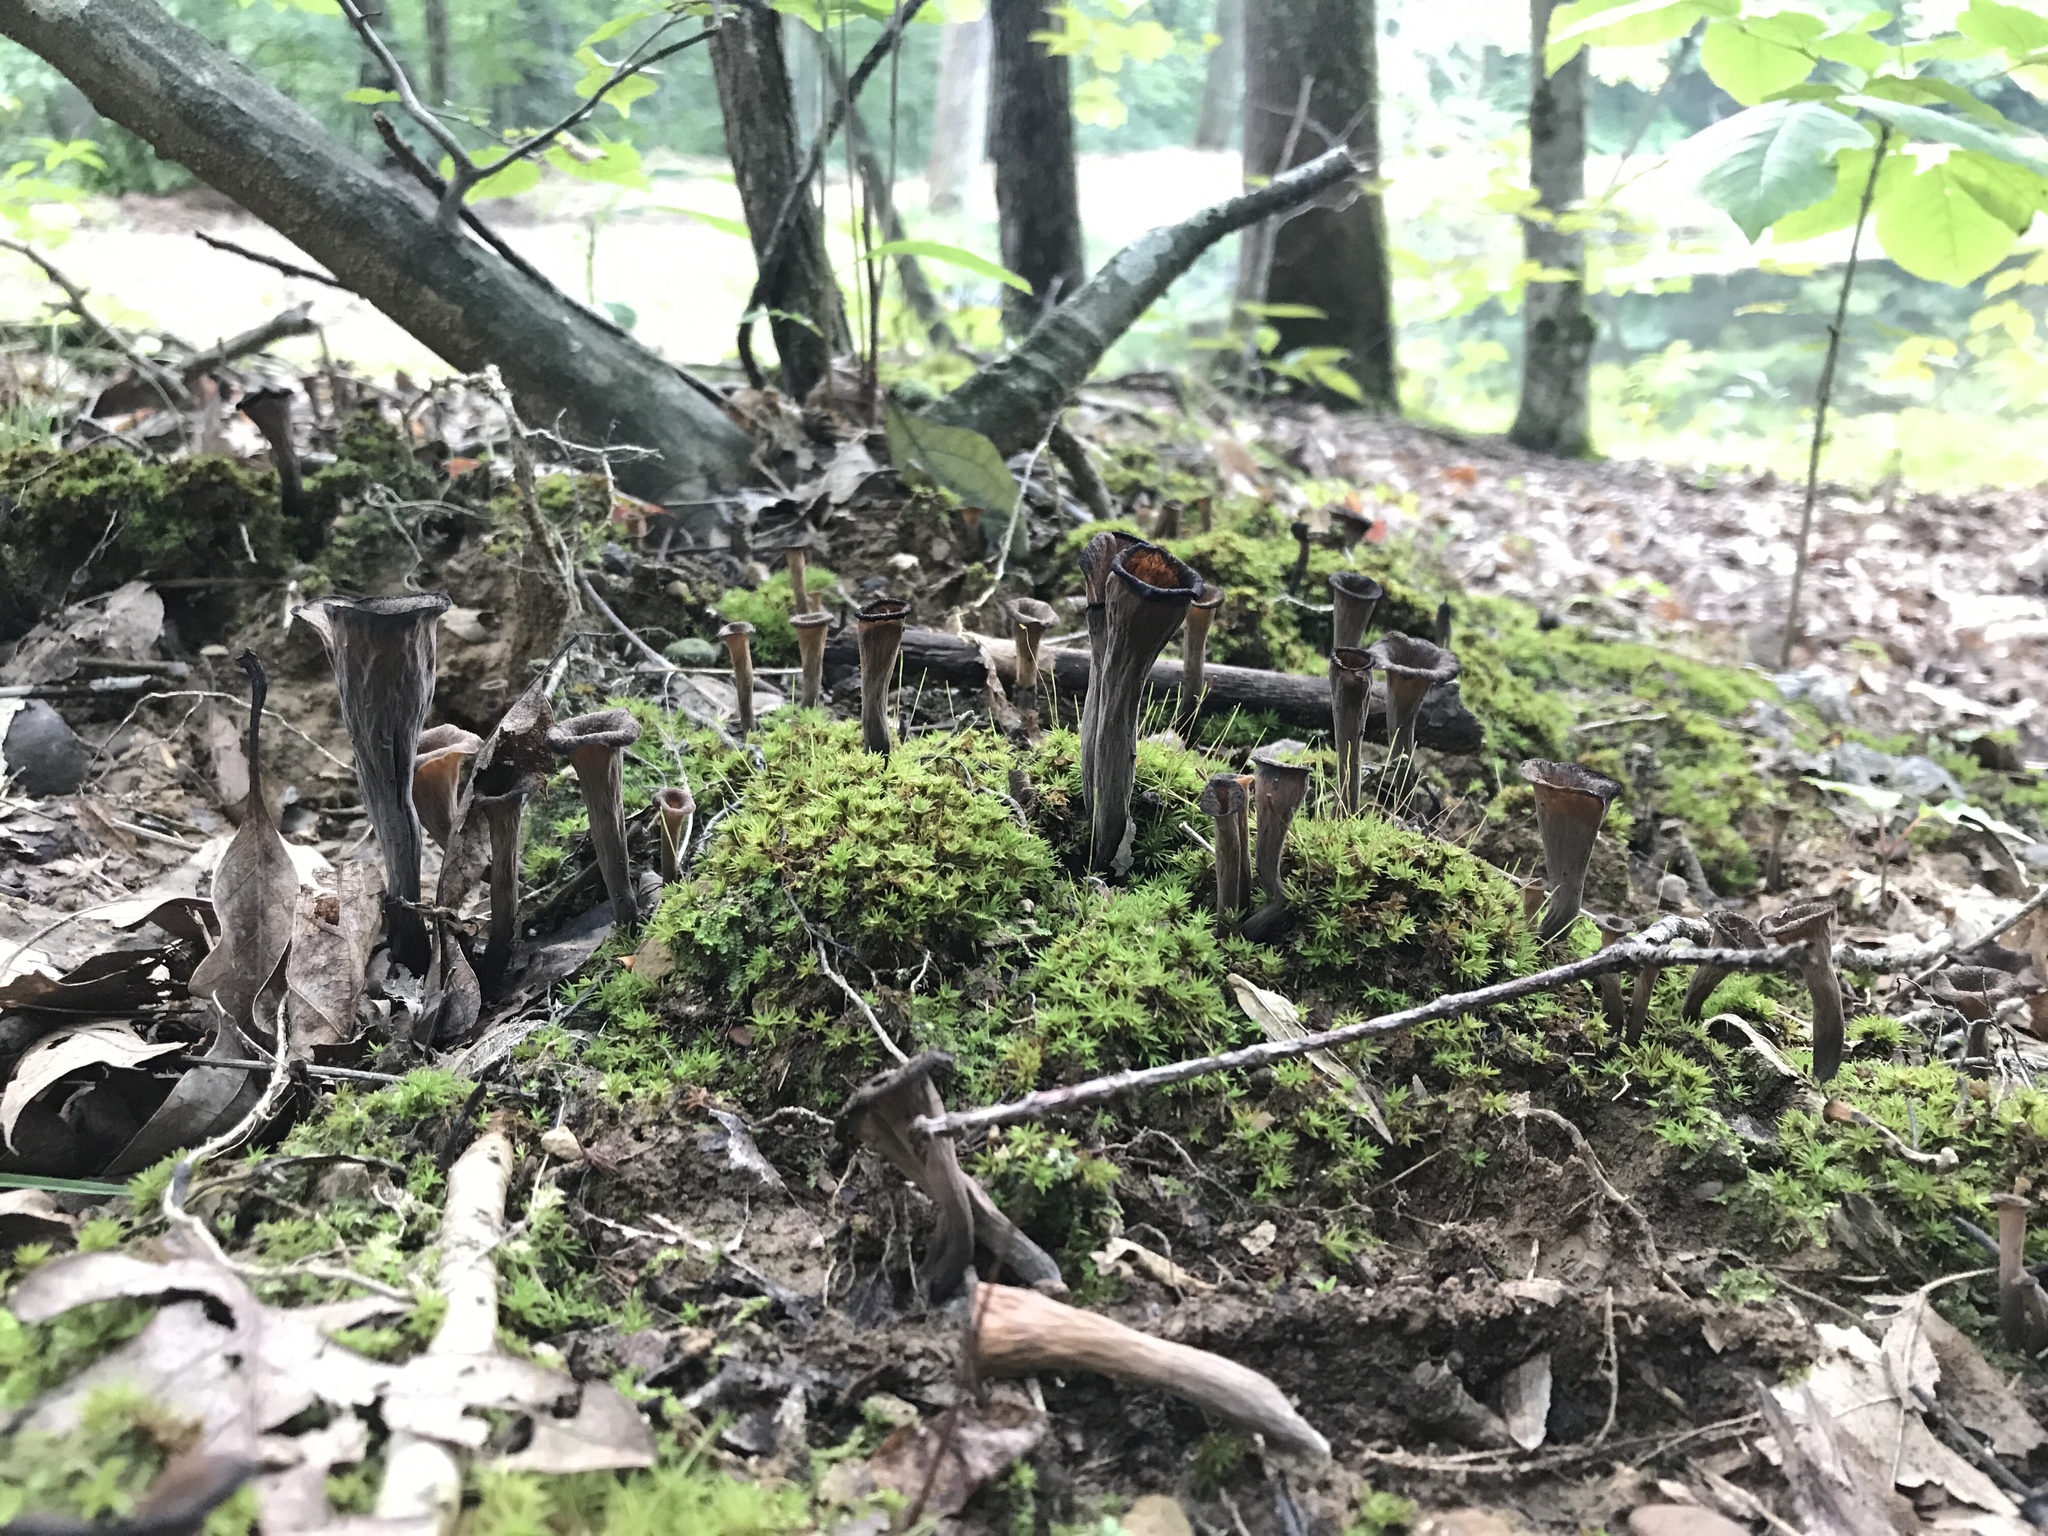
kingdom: Fungi
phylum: Basidiomycota
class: Agaricomycetes
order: Cantharellales
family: Hydnaceae
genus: Craterellus
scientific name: Craterellus cornucopioides
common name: Horn of plenty
